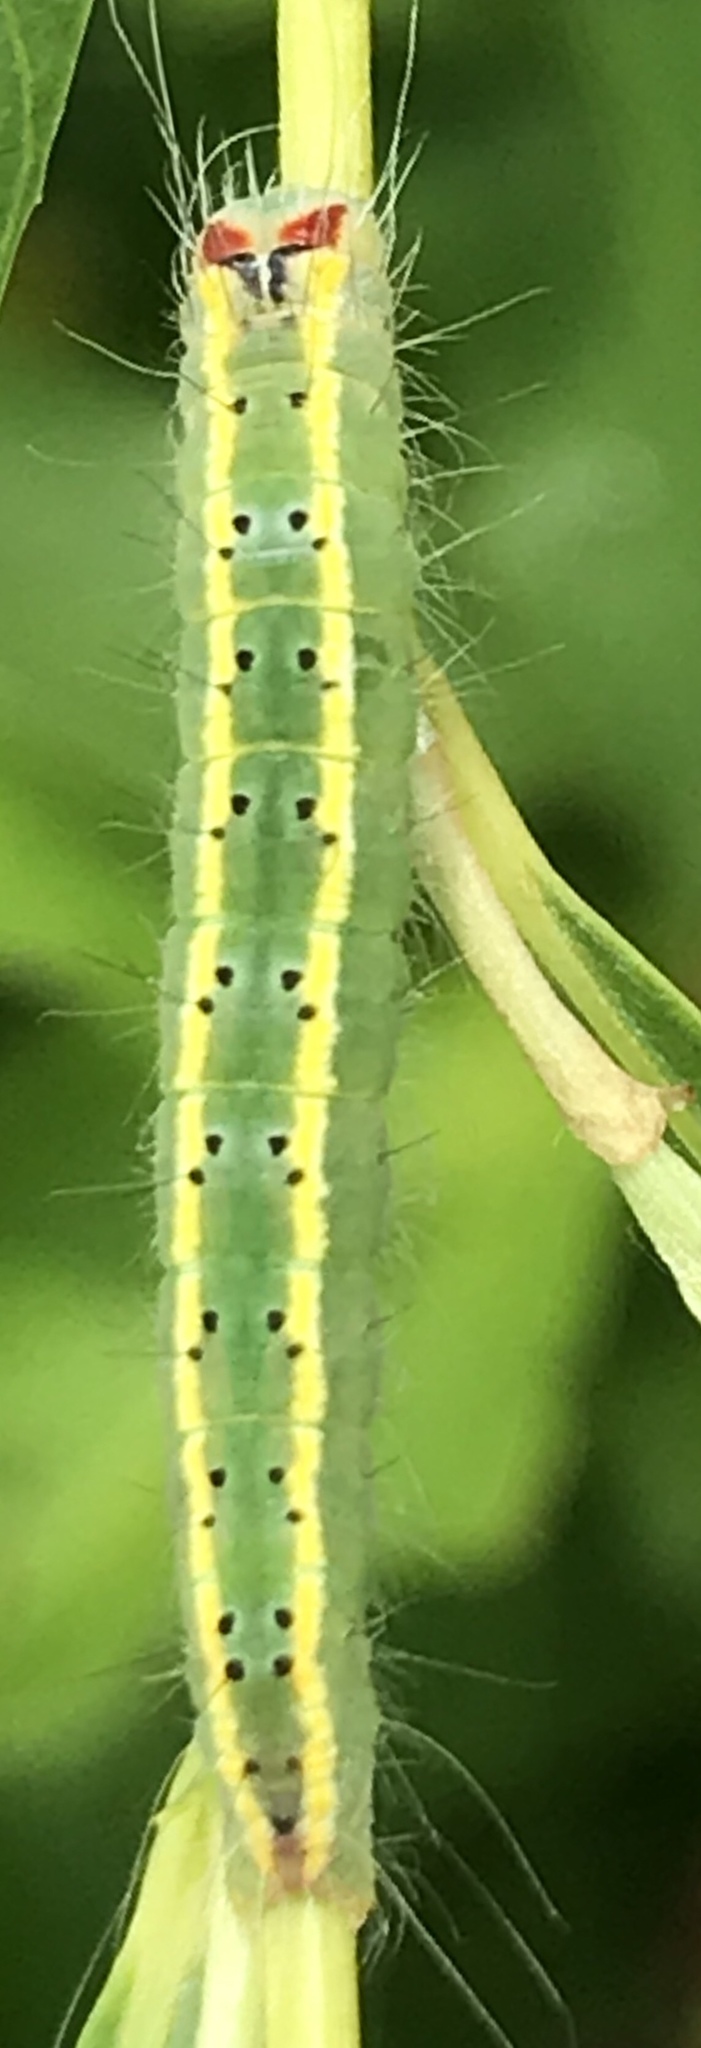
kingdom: Animalia
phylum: Arthropoda
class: Insecta
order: Lepidoptera
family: Noctuidae
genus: Acronicta
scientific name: Acronicta connecta
